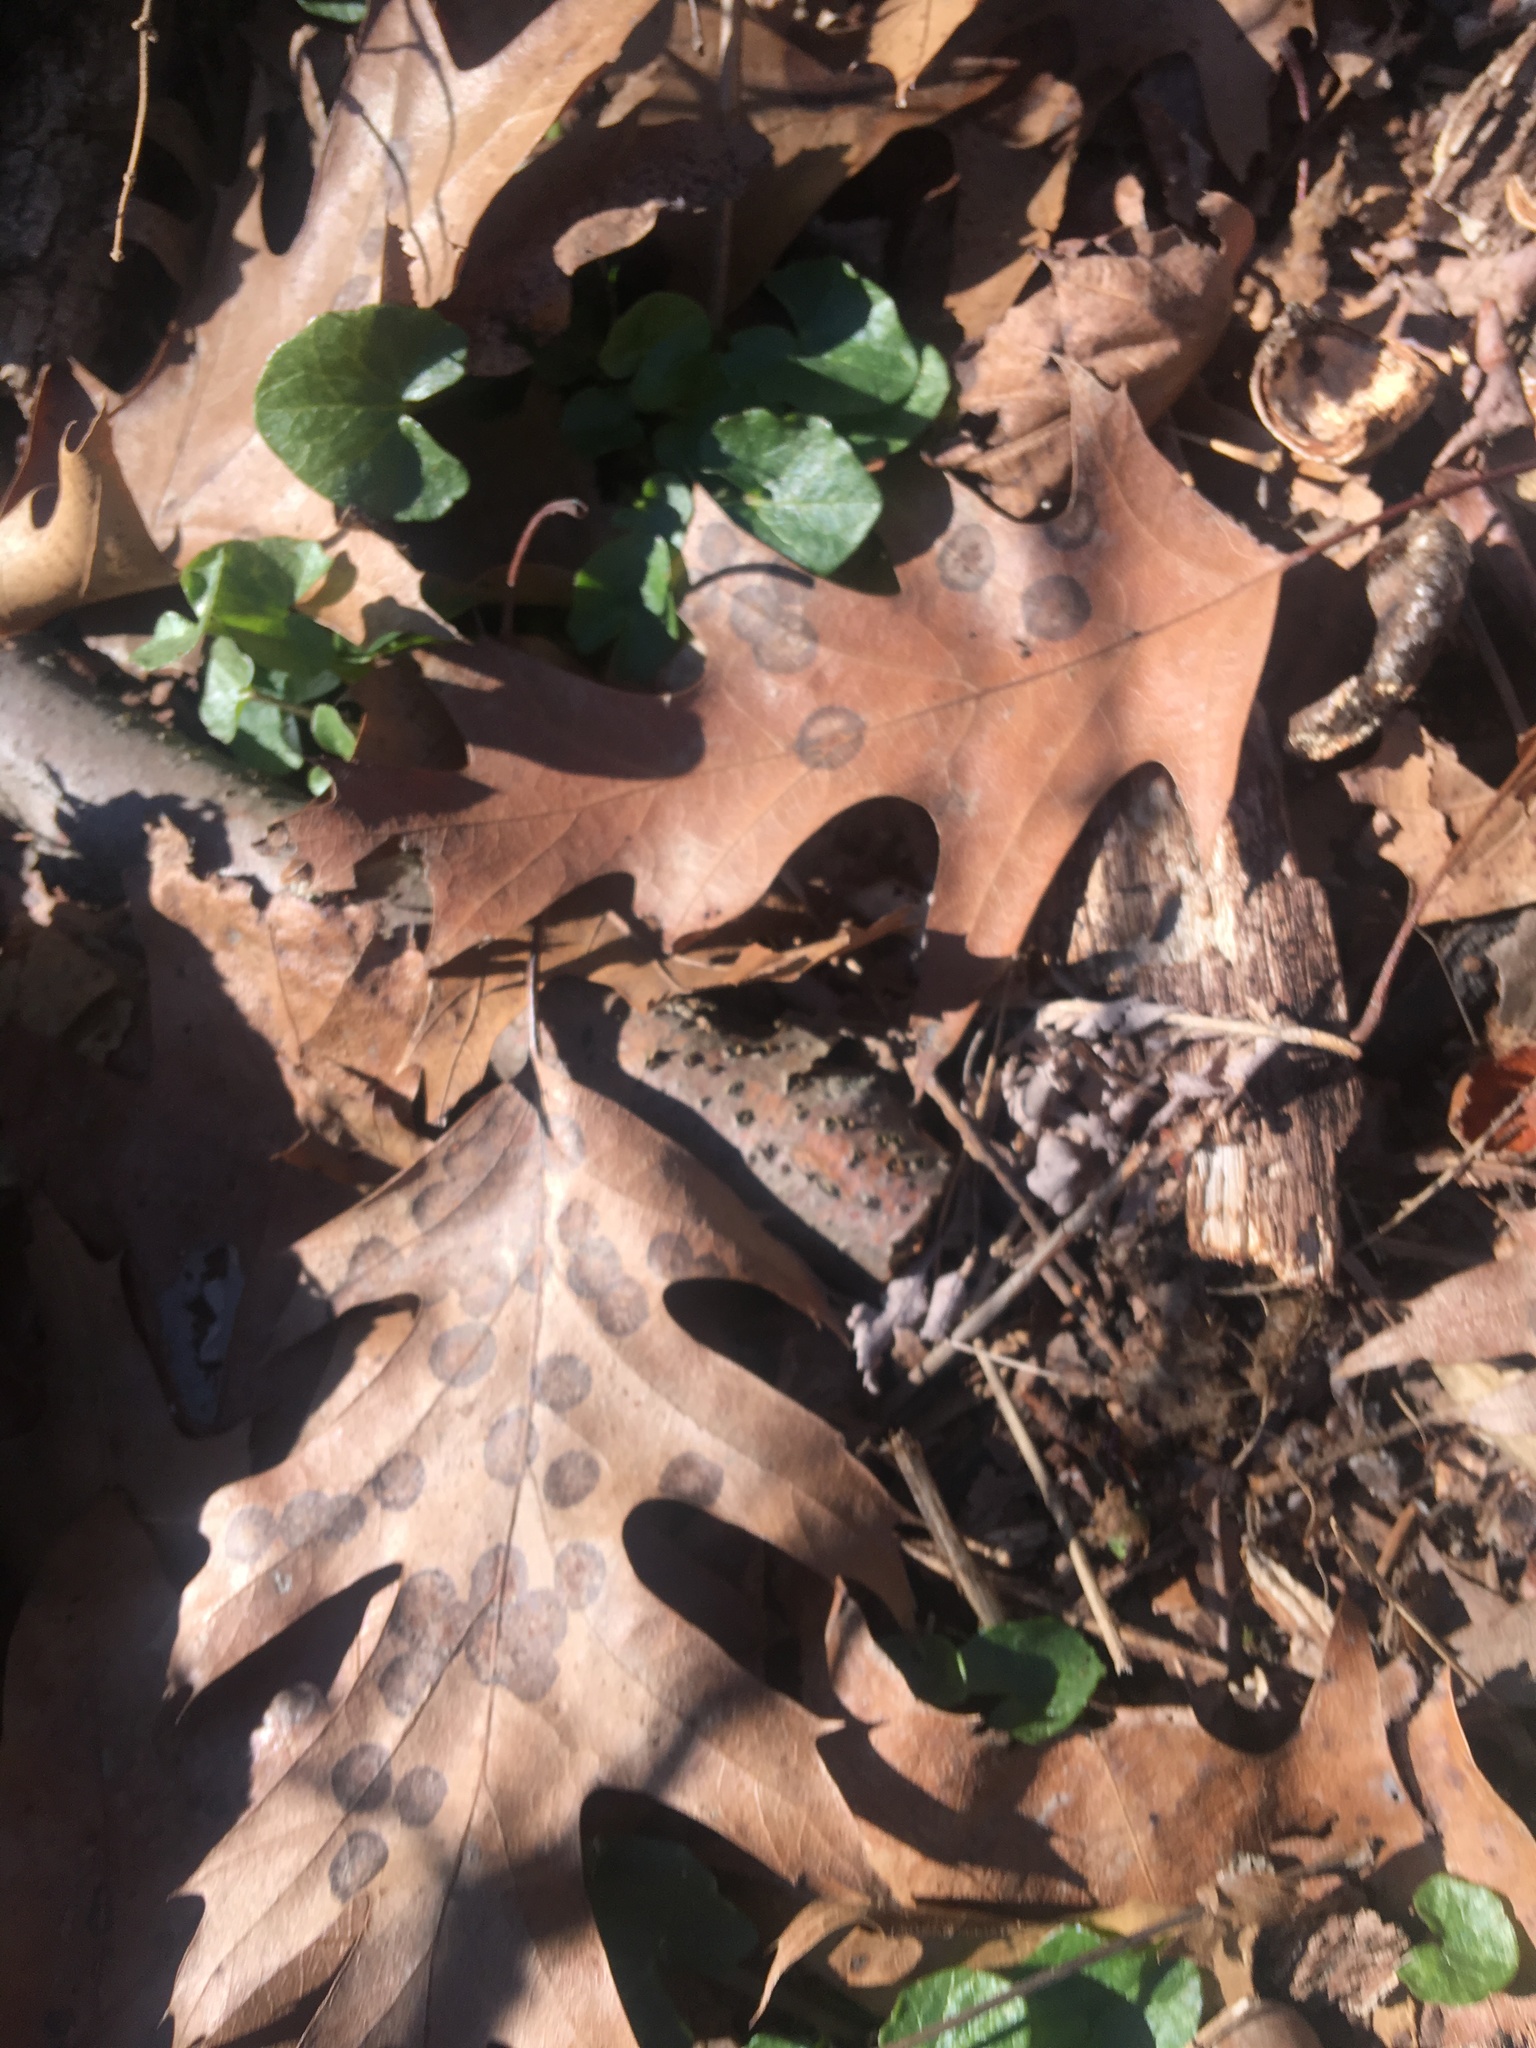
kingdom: Plantae
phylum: Tracheophyta
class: Magnoliopsida
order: Ranunculales
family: Ranunculaceae
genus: Ficaria
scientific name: Ficaria verna
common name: Lesser celandine
